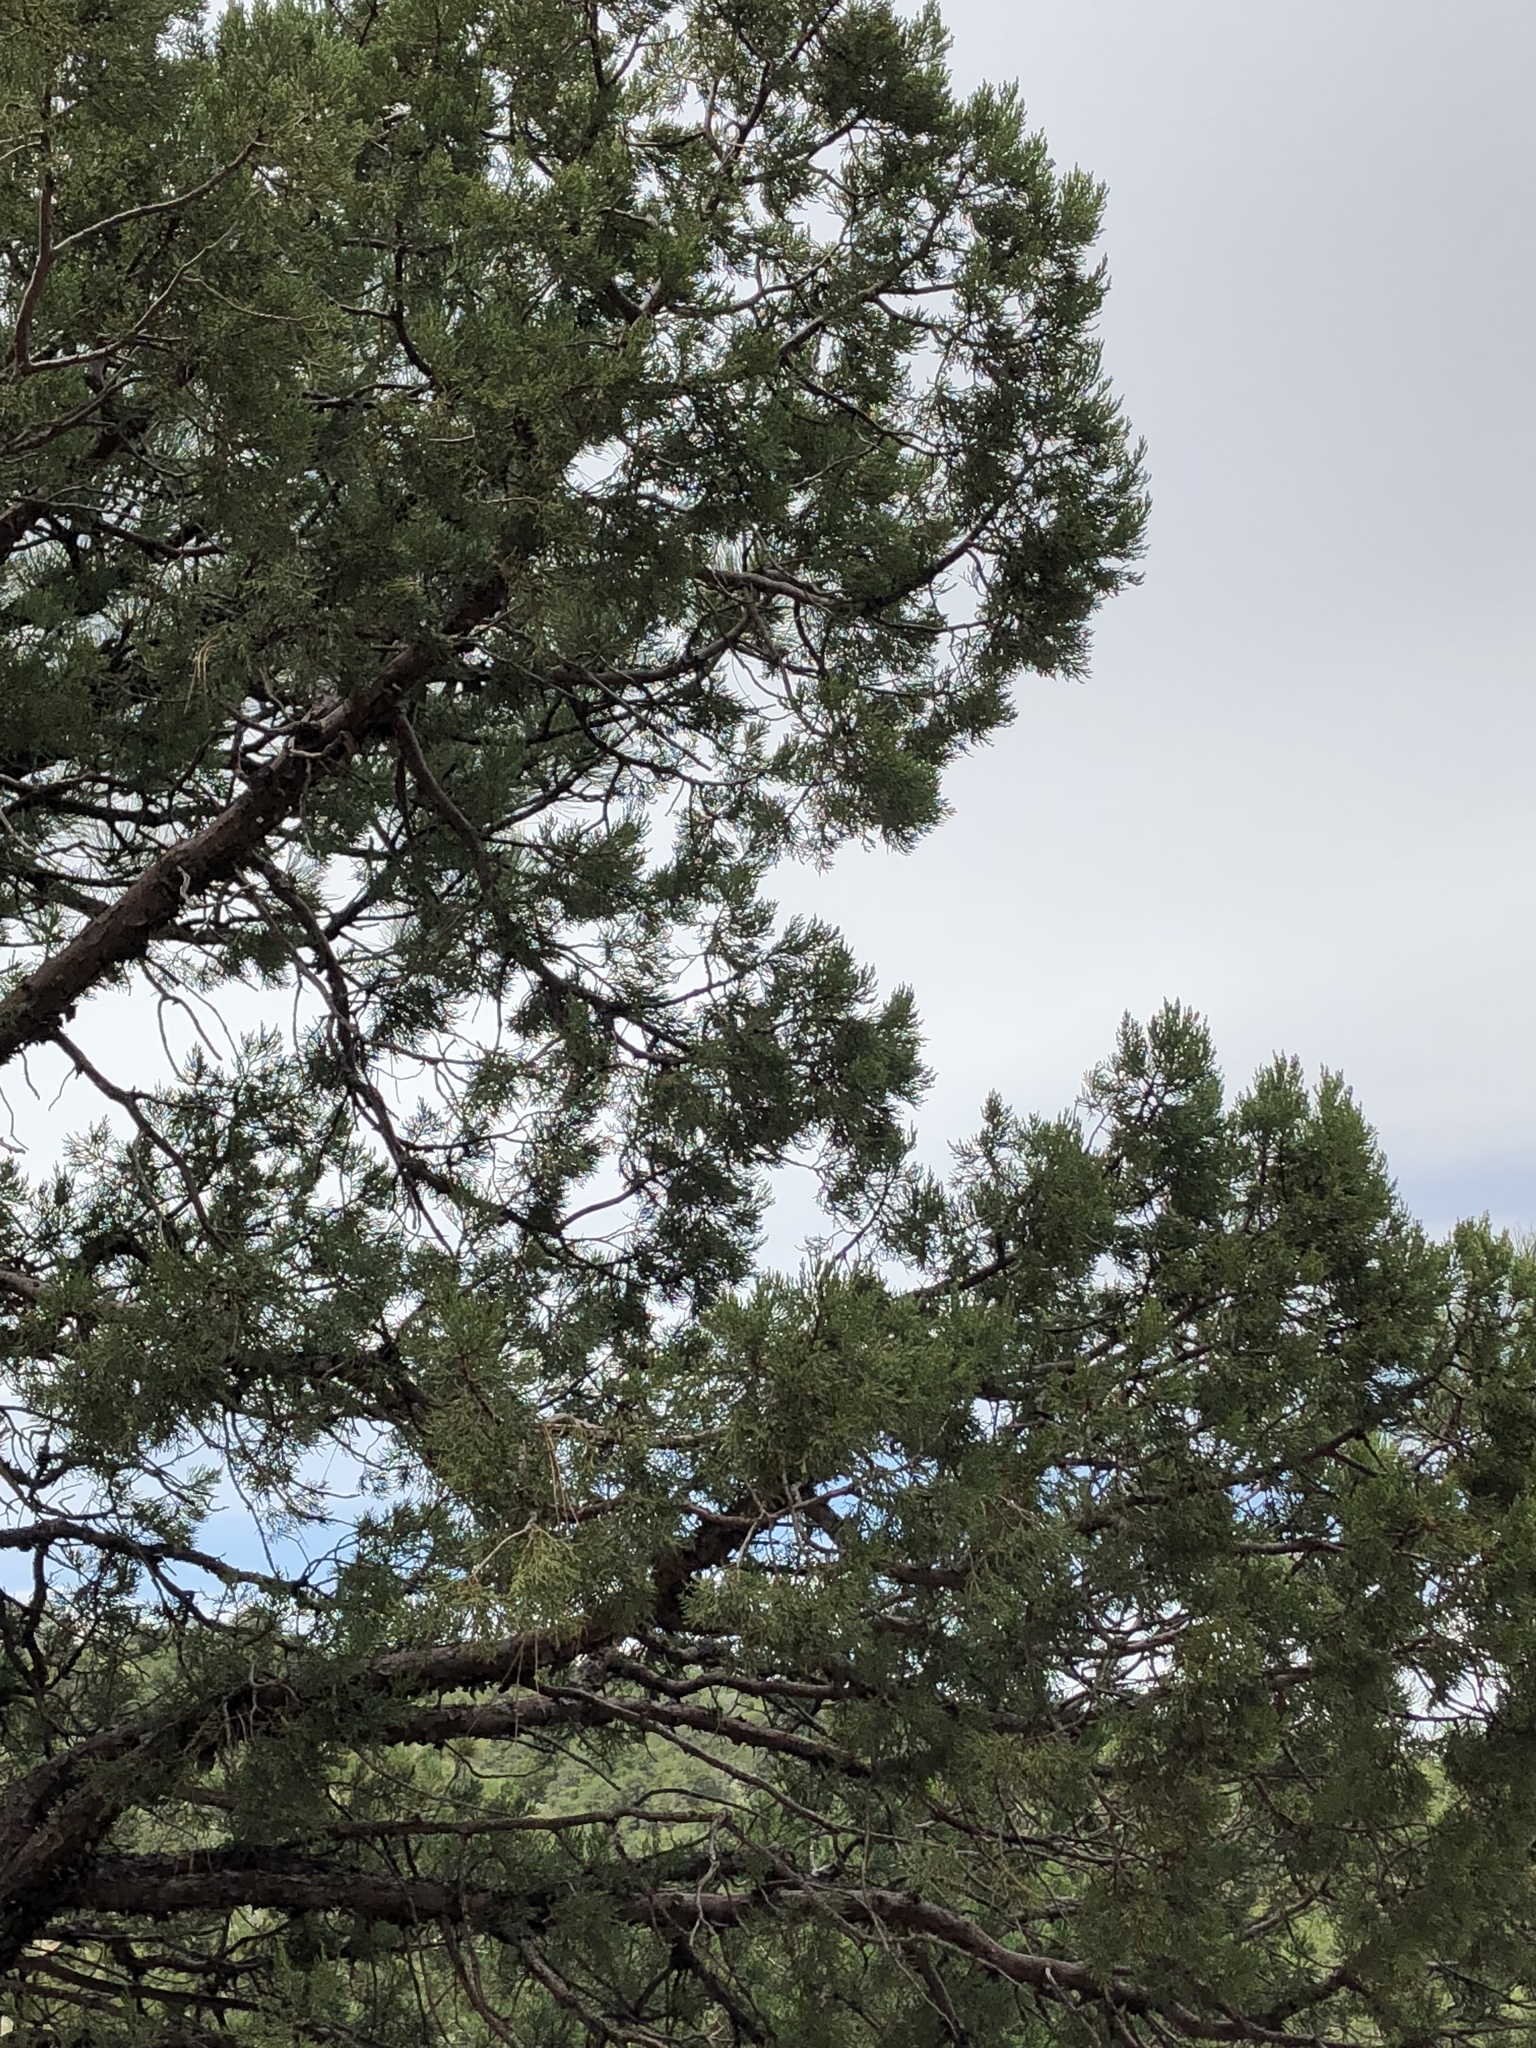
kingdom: Plantae
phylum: Tracheophyta
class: Pinopsida
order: Pinales
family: Pinaceae
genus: Pinus
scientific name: Pinus edulis
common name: Colorado pinyon
